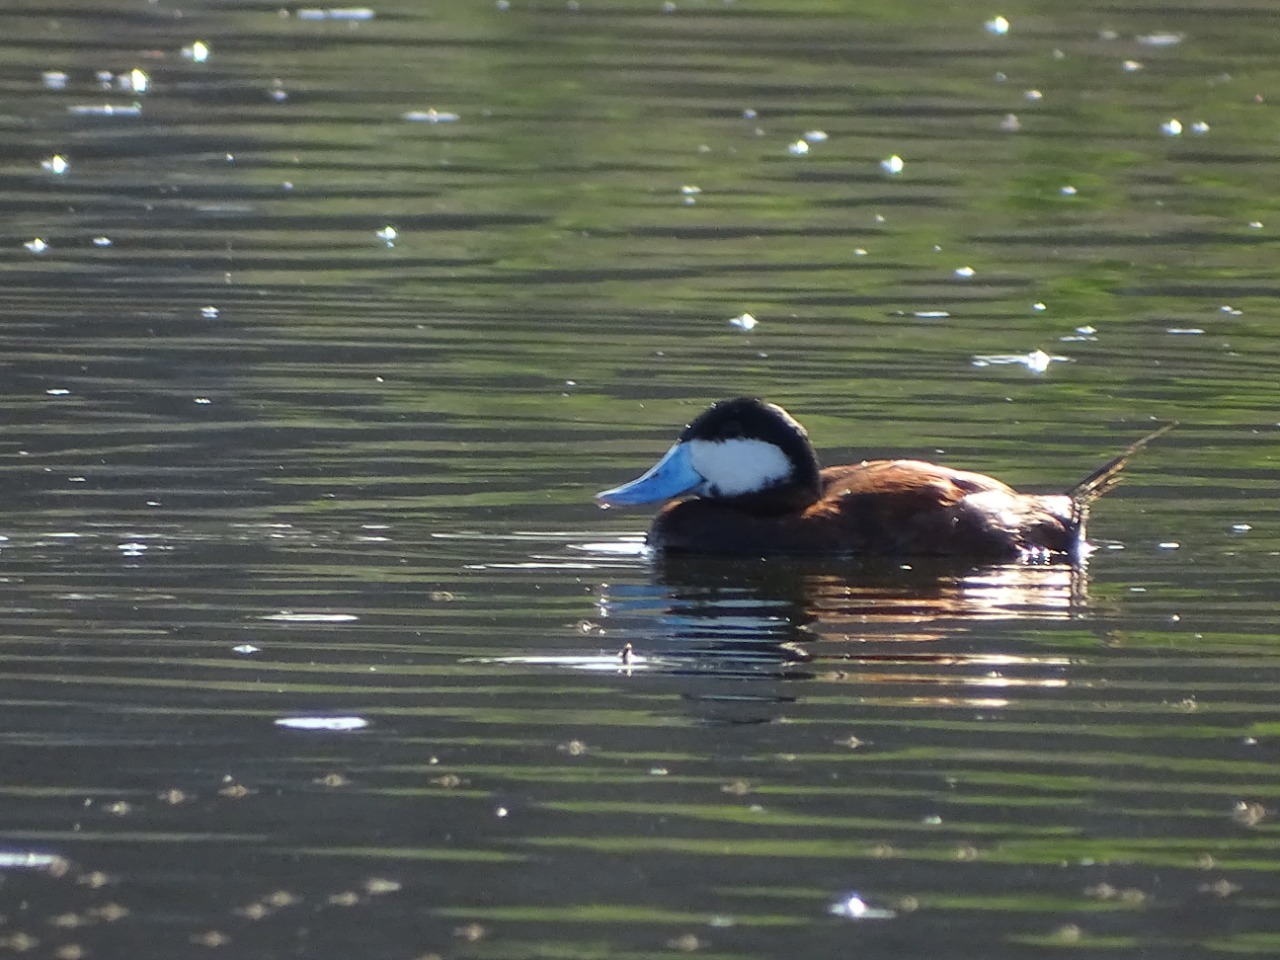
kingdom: Animalia
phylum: Chordata
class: Aves
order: Anseriformes
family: Anatidae
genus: Oxyura
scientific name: Oxyura jamaicensis
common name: Ruddy duck
